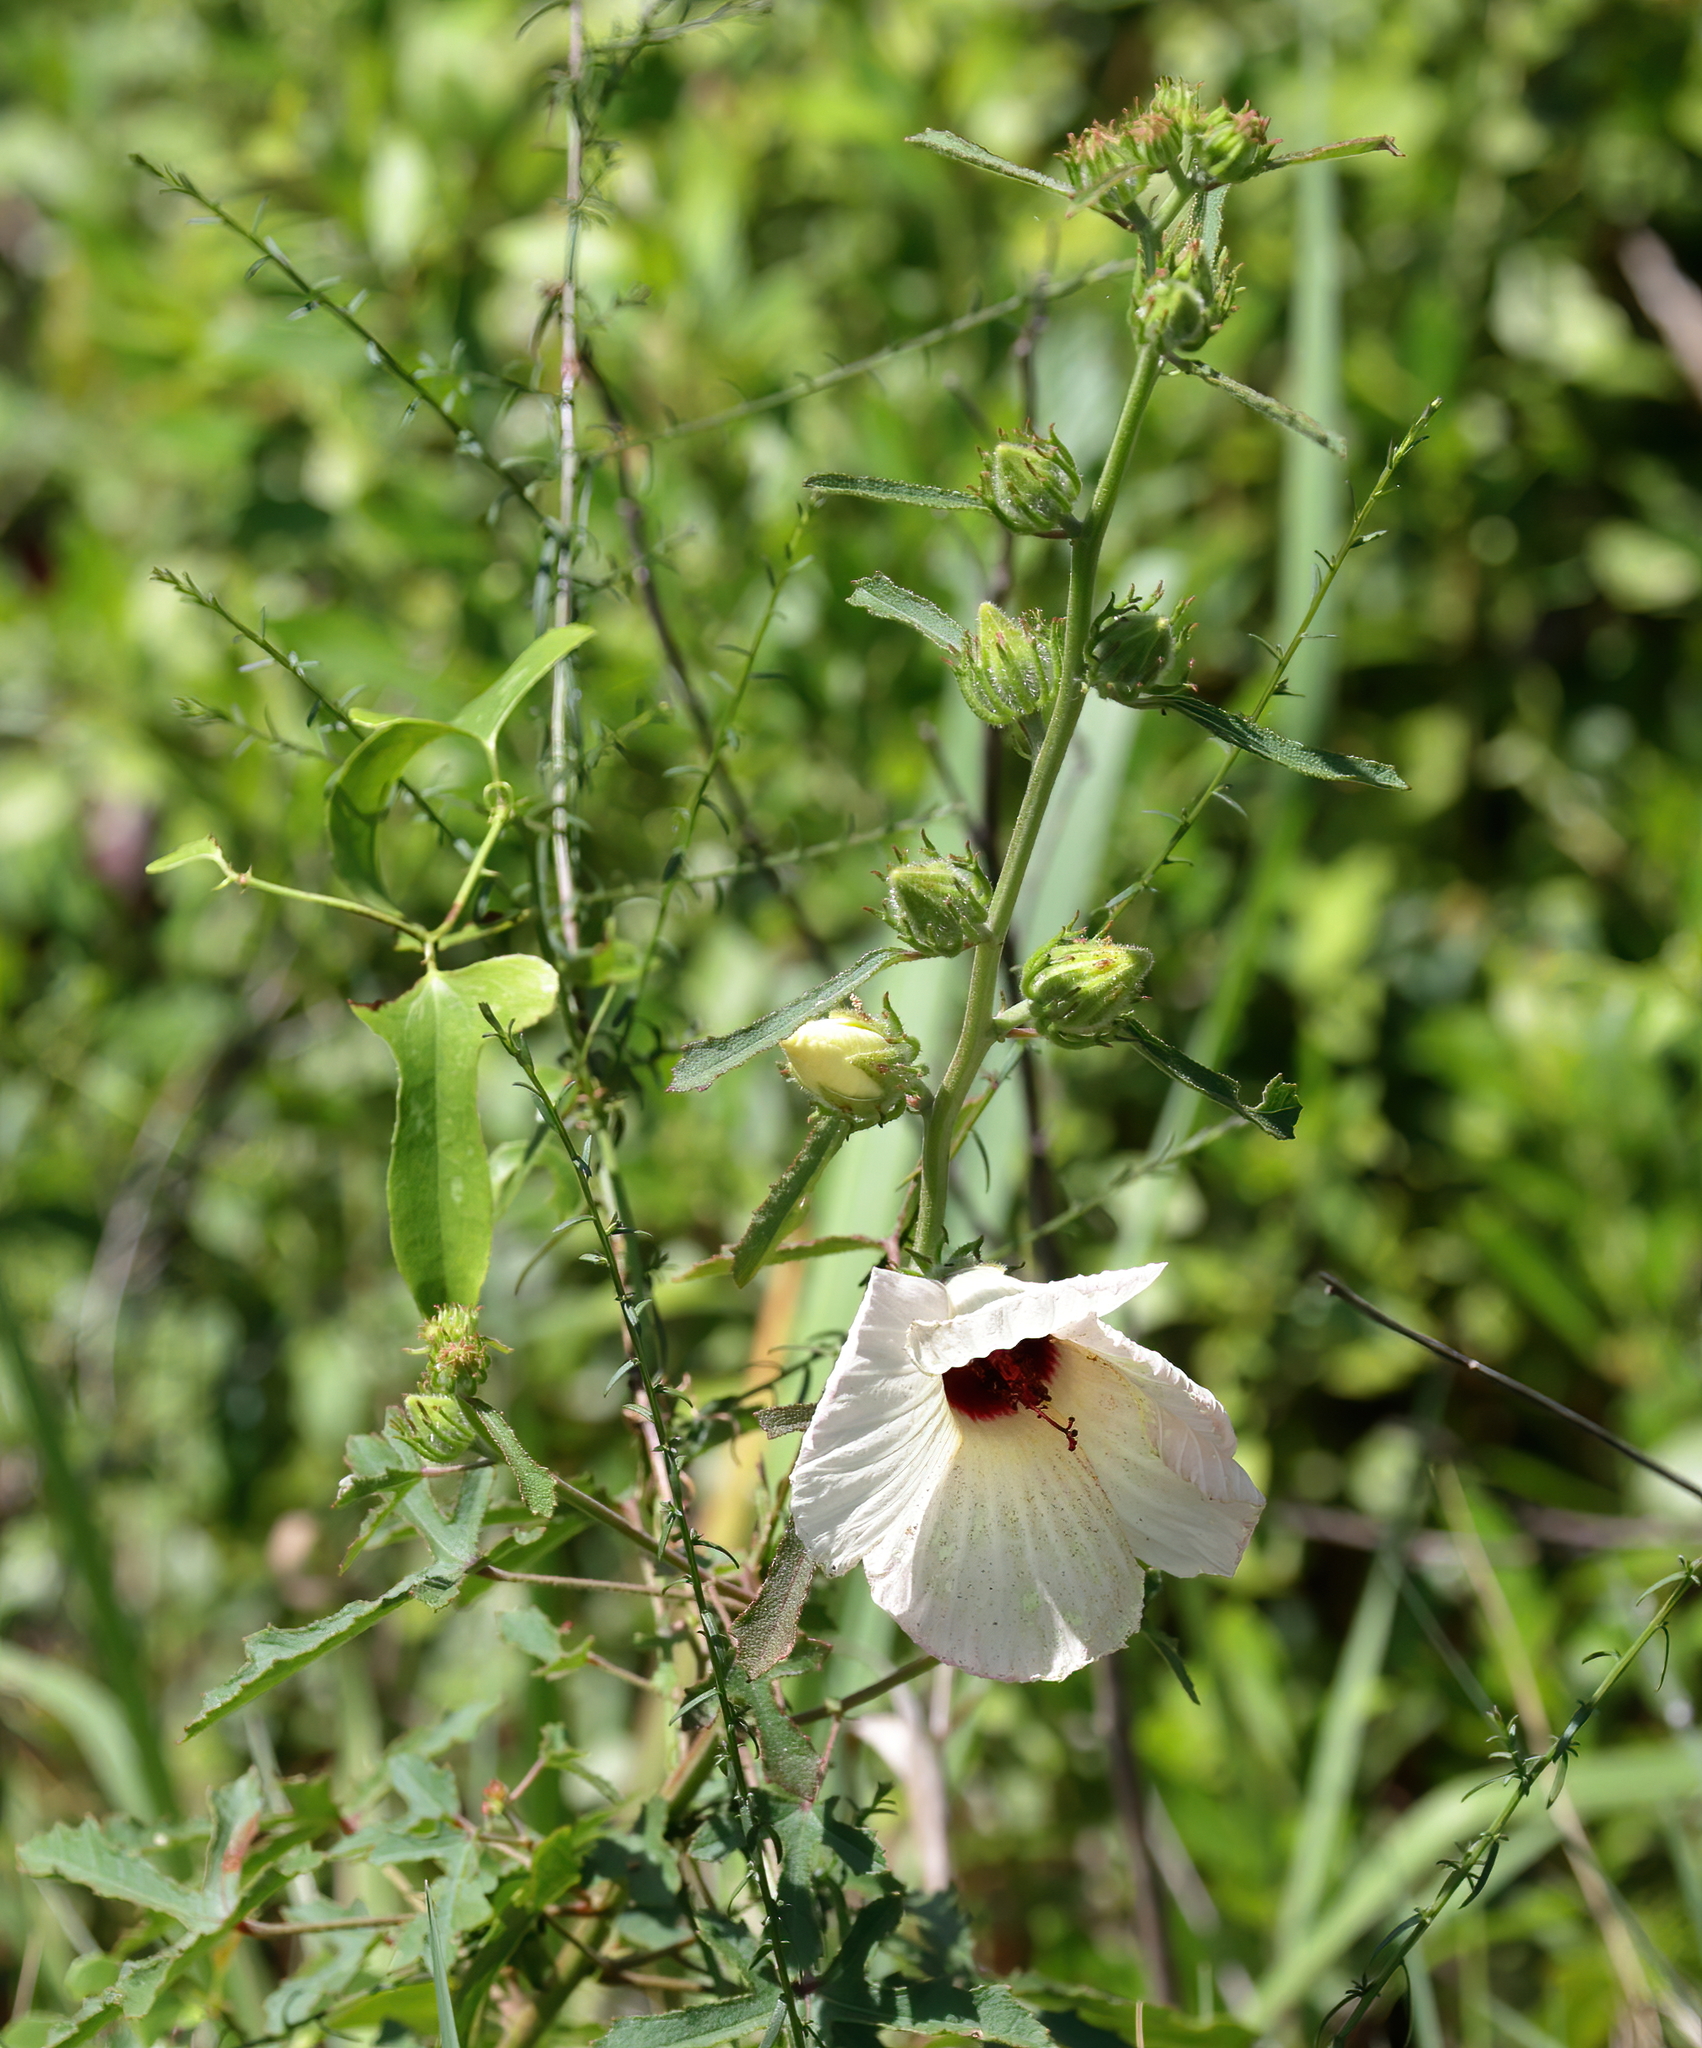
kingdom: Plantae
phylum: Tracheophyta
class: Magnoliopsida
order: Malvales
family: Malvaceae
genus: Hibiscus
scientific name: Hibiscus aculeatus
